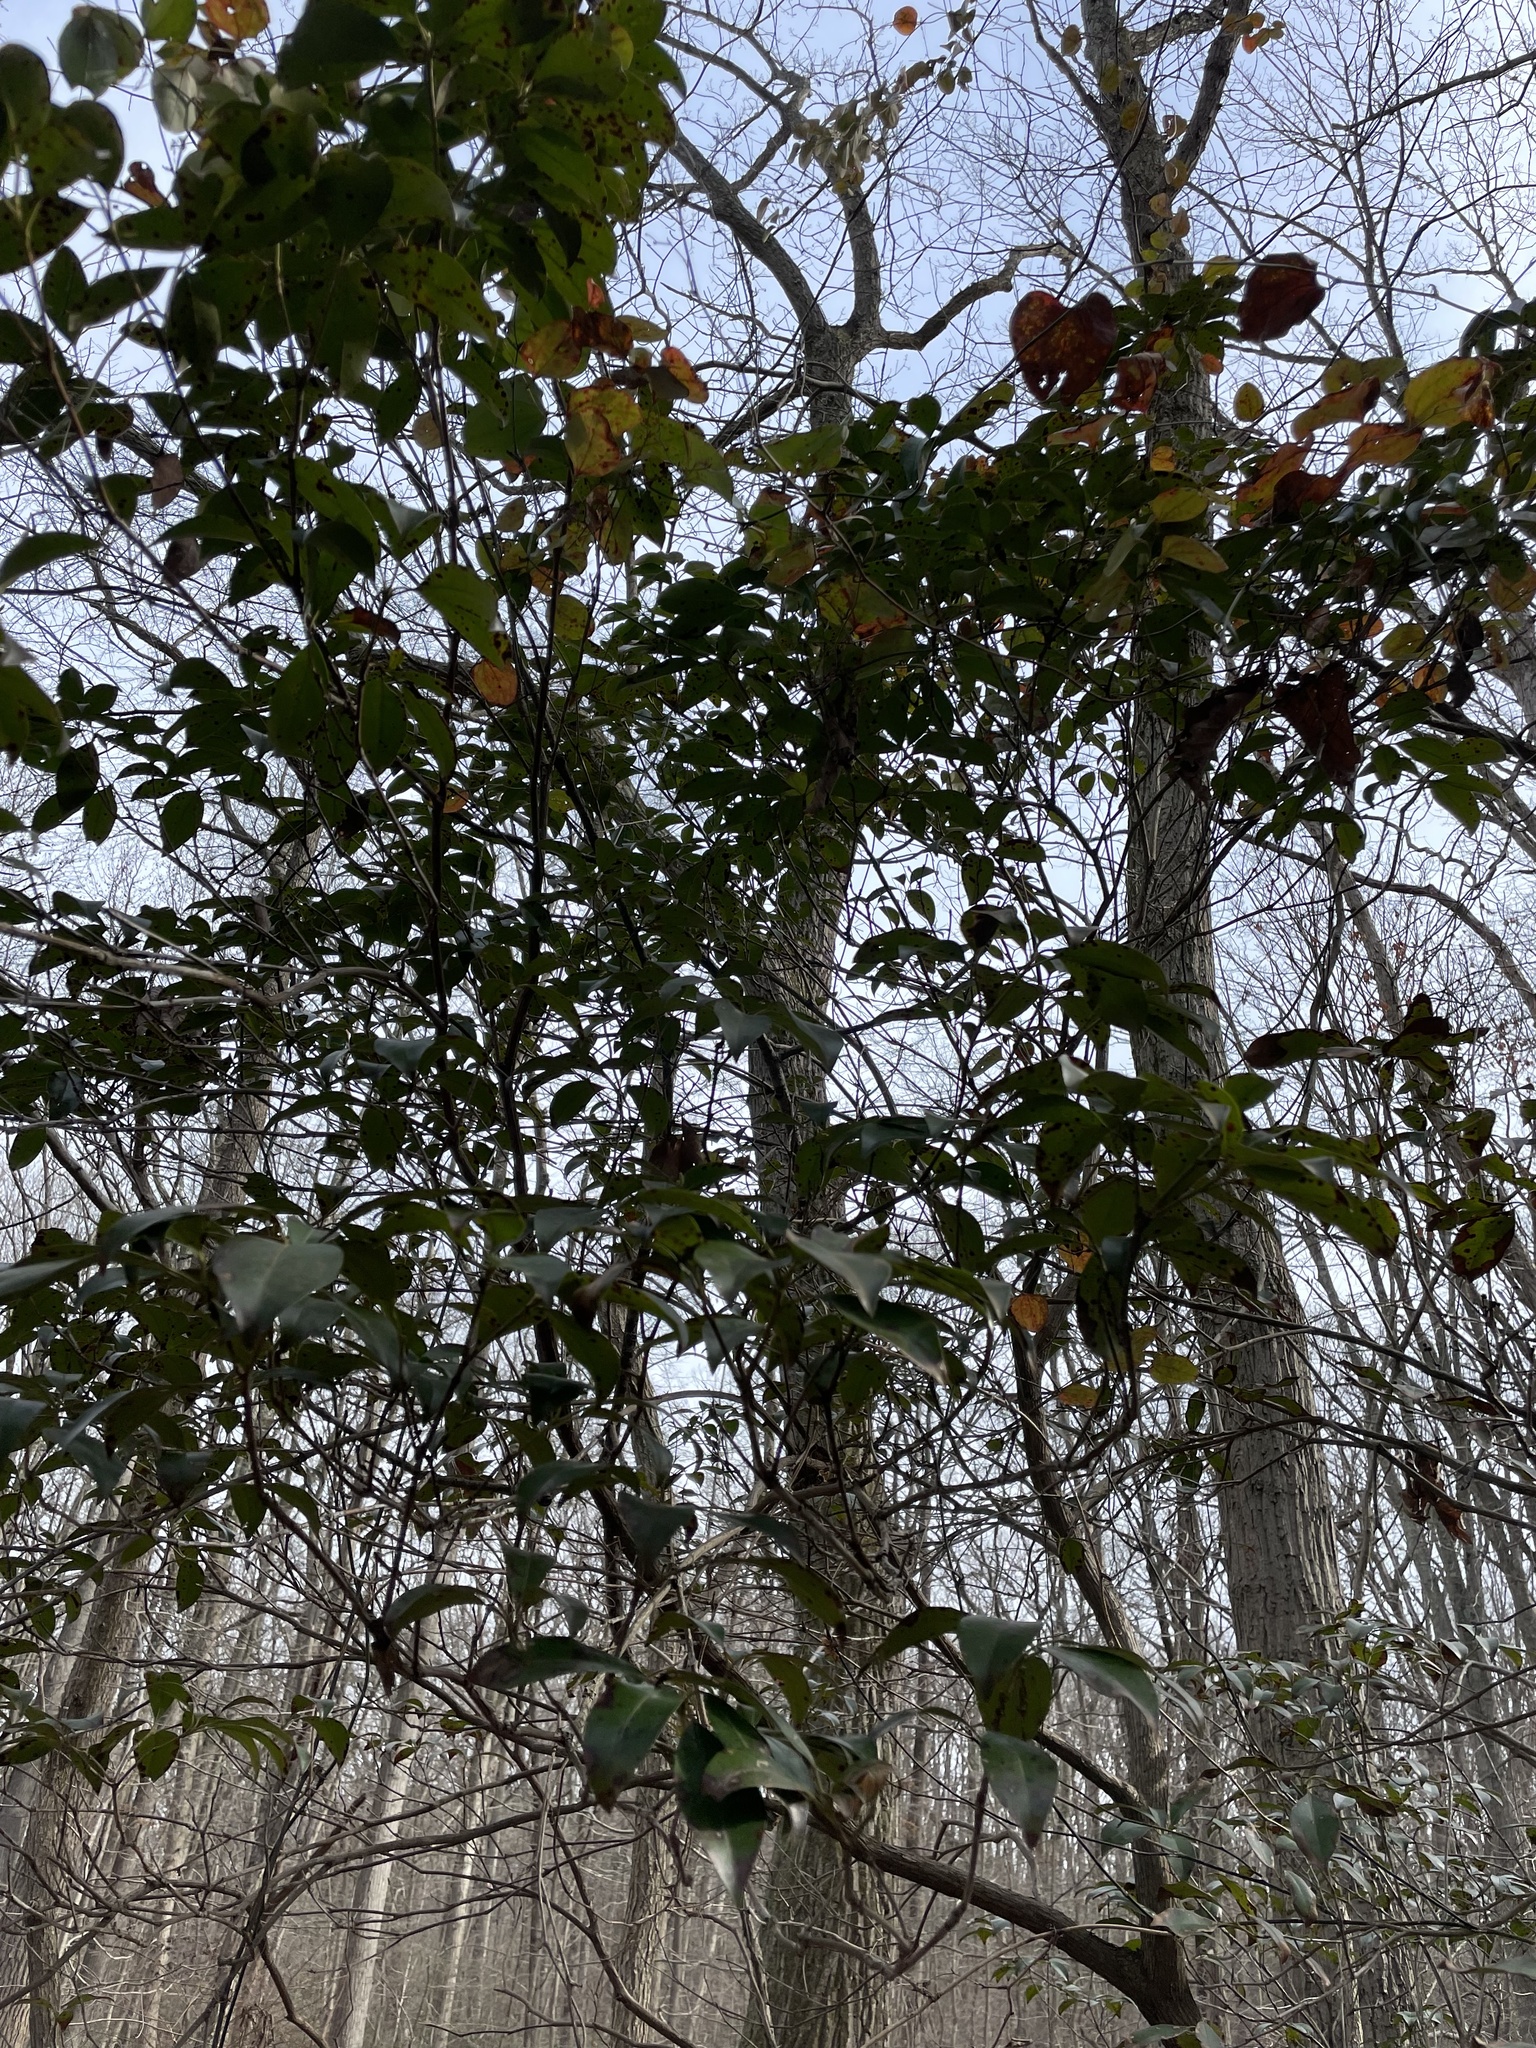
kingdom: Plantae
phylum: Tracheophyta
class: Magnoliopsida
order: Ericales
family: Ericaceae
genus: Kalmia
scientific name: Kalmia latifolia
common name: Mountain-laurel
